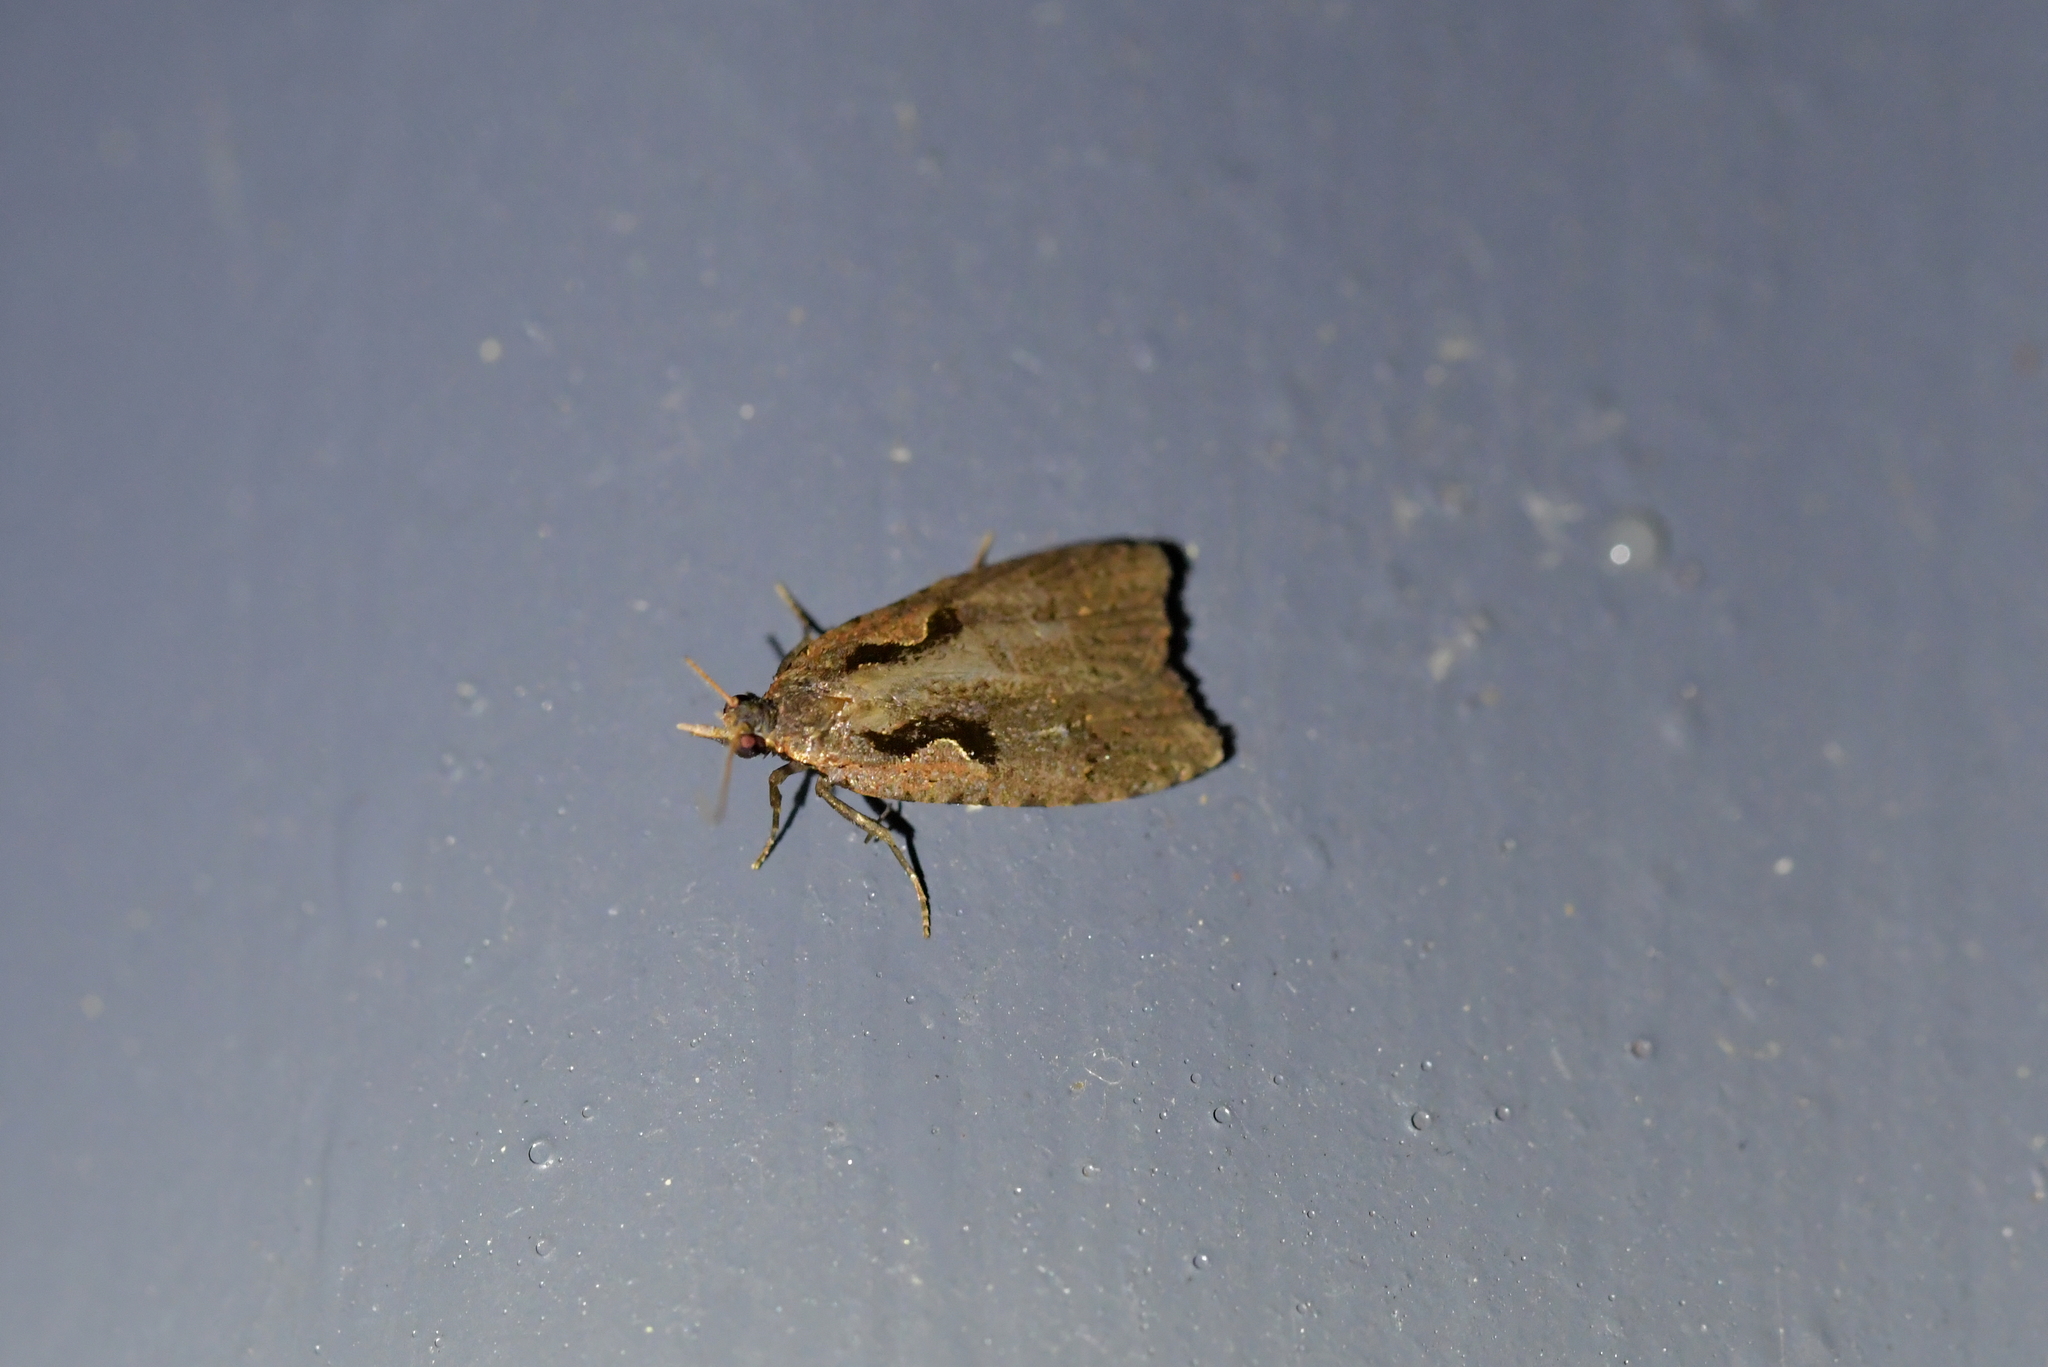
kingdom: Animalia
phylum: Arthropoda
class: Insecta
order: Lepidoptera
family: Tortricidae
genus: Cnephasia
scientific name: Cnephasia jactatana
